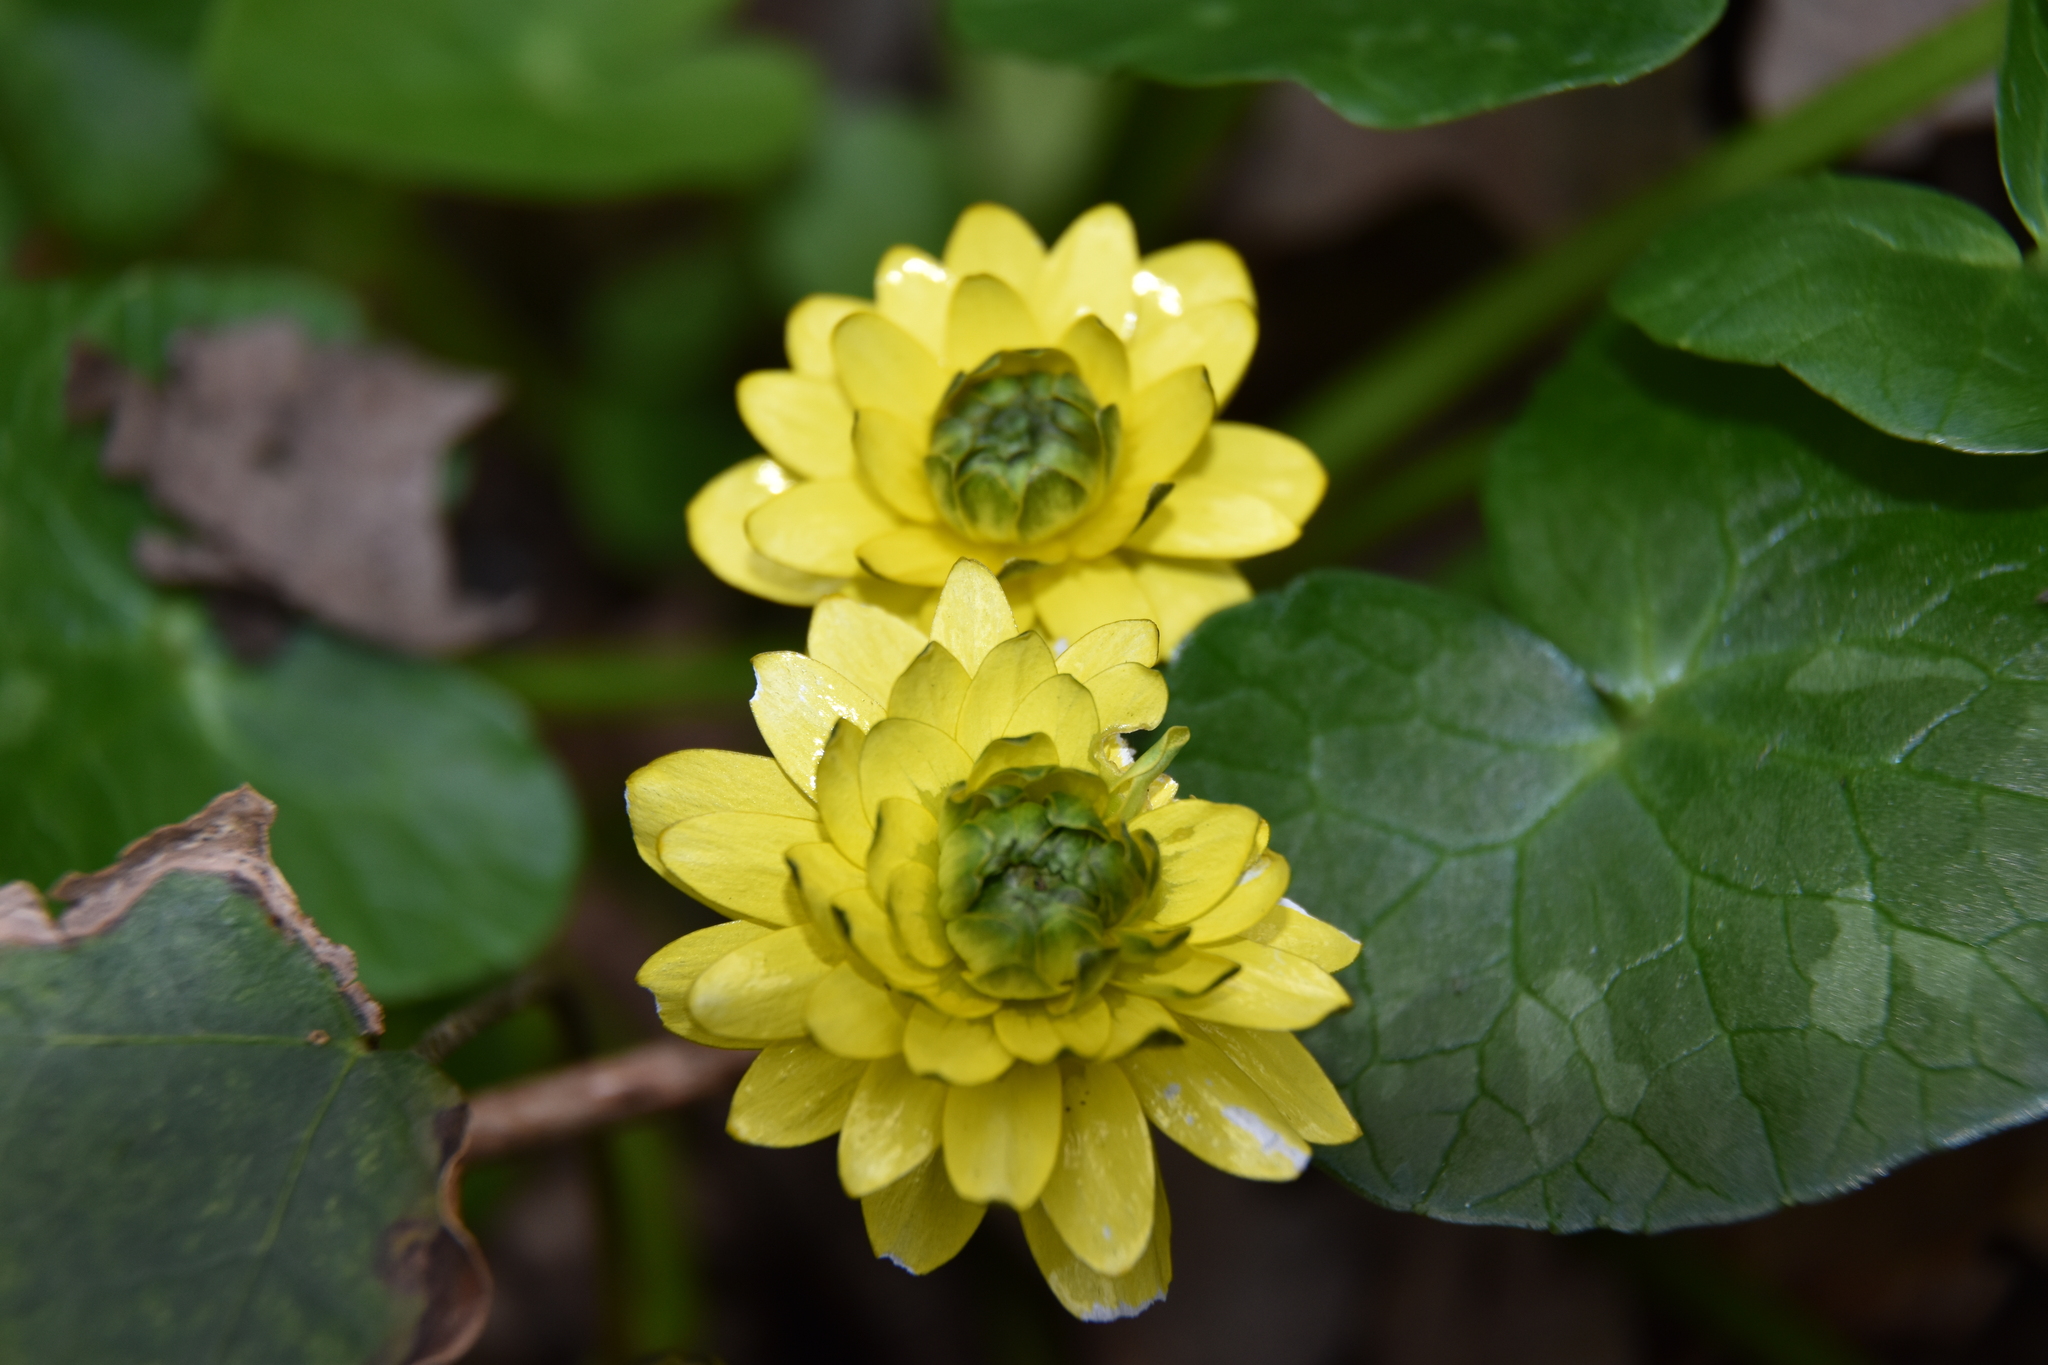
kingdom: Plantae
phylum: Tracheophyta
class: Magnoliopsida
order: Ranunculales
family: Ranunculaceae
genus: Ficaria
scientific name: Ficaria verna
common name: Lesser celandine
